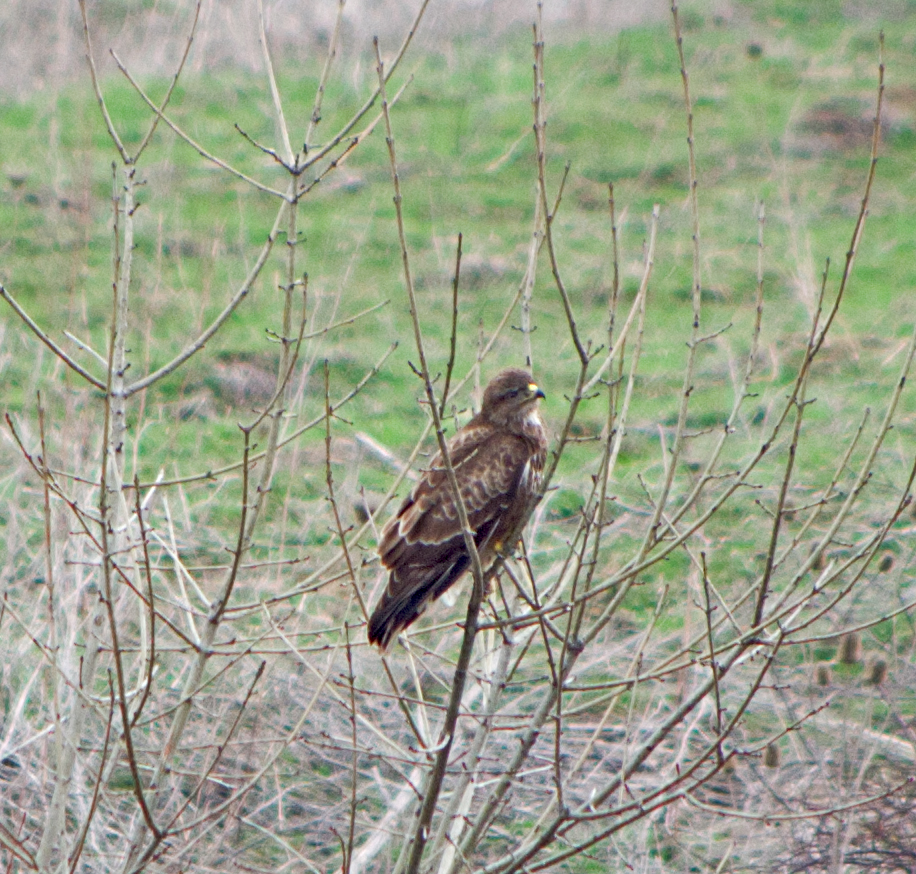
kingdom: Animalia
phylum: Chordata
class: Aves
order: Accipitriformes
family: Accipitridae
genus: Buteo
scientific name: Buteo buteo
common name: Common buzzard
